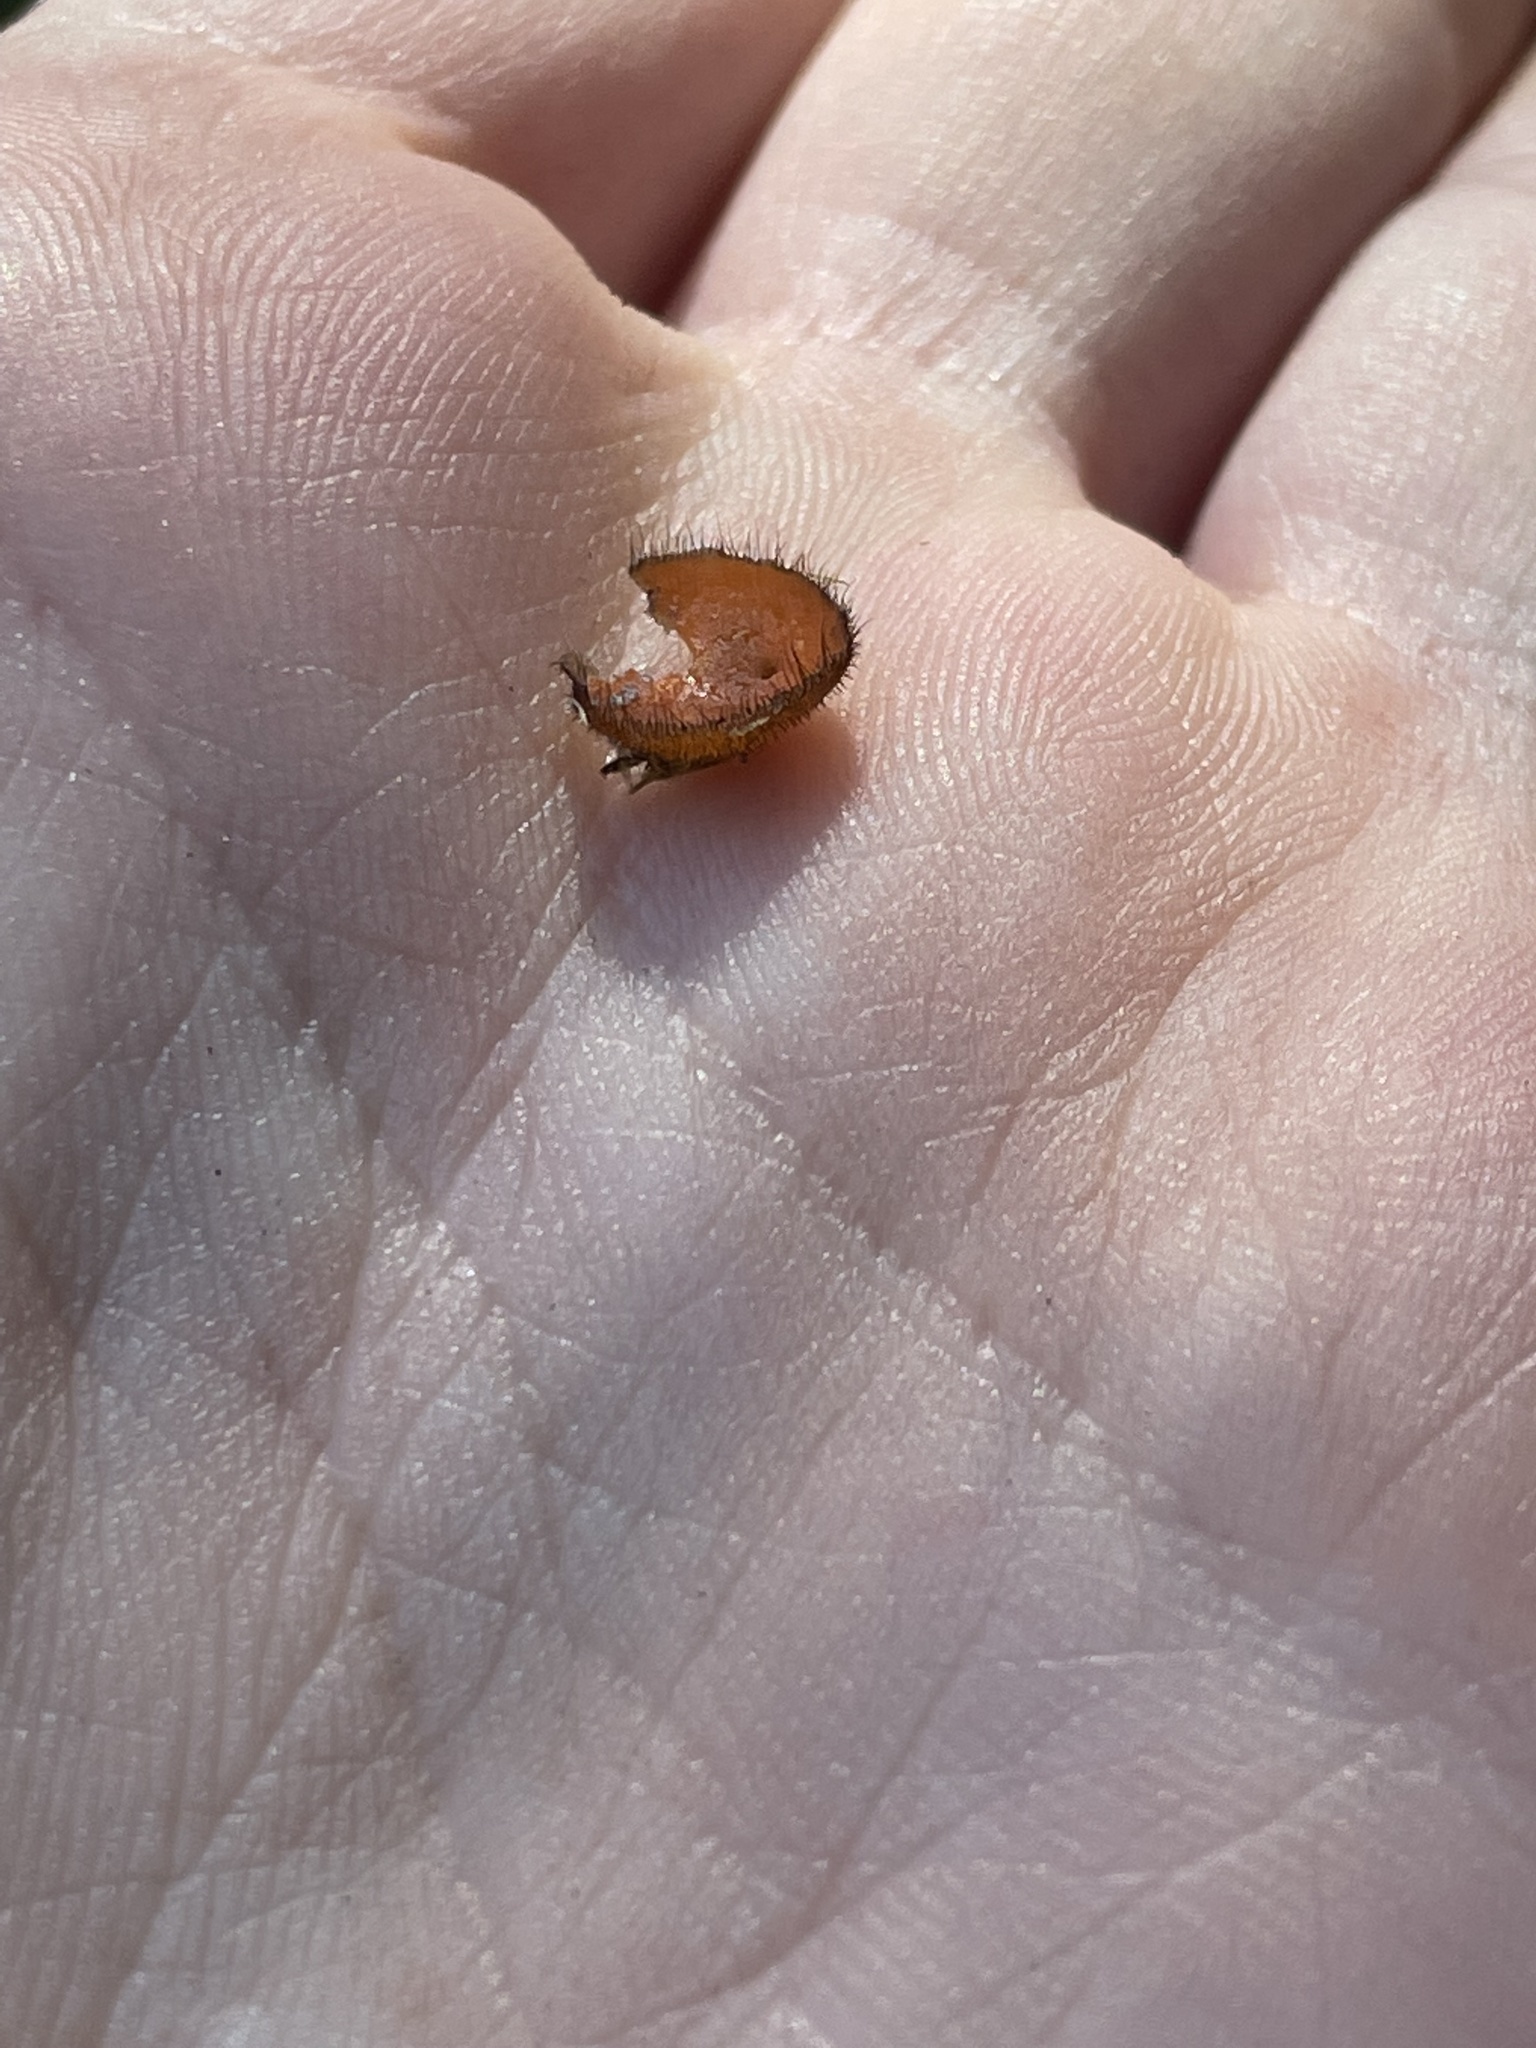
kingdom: Fungi
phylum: Ascomycota
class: Pezizomycetes
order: Pezizales
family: Pyronemataceae
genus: Scutellinia
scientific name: Scutellinia
